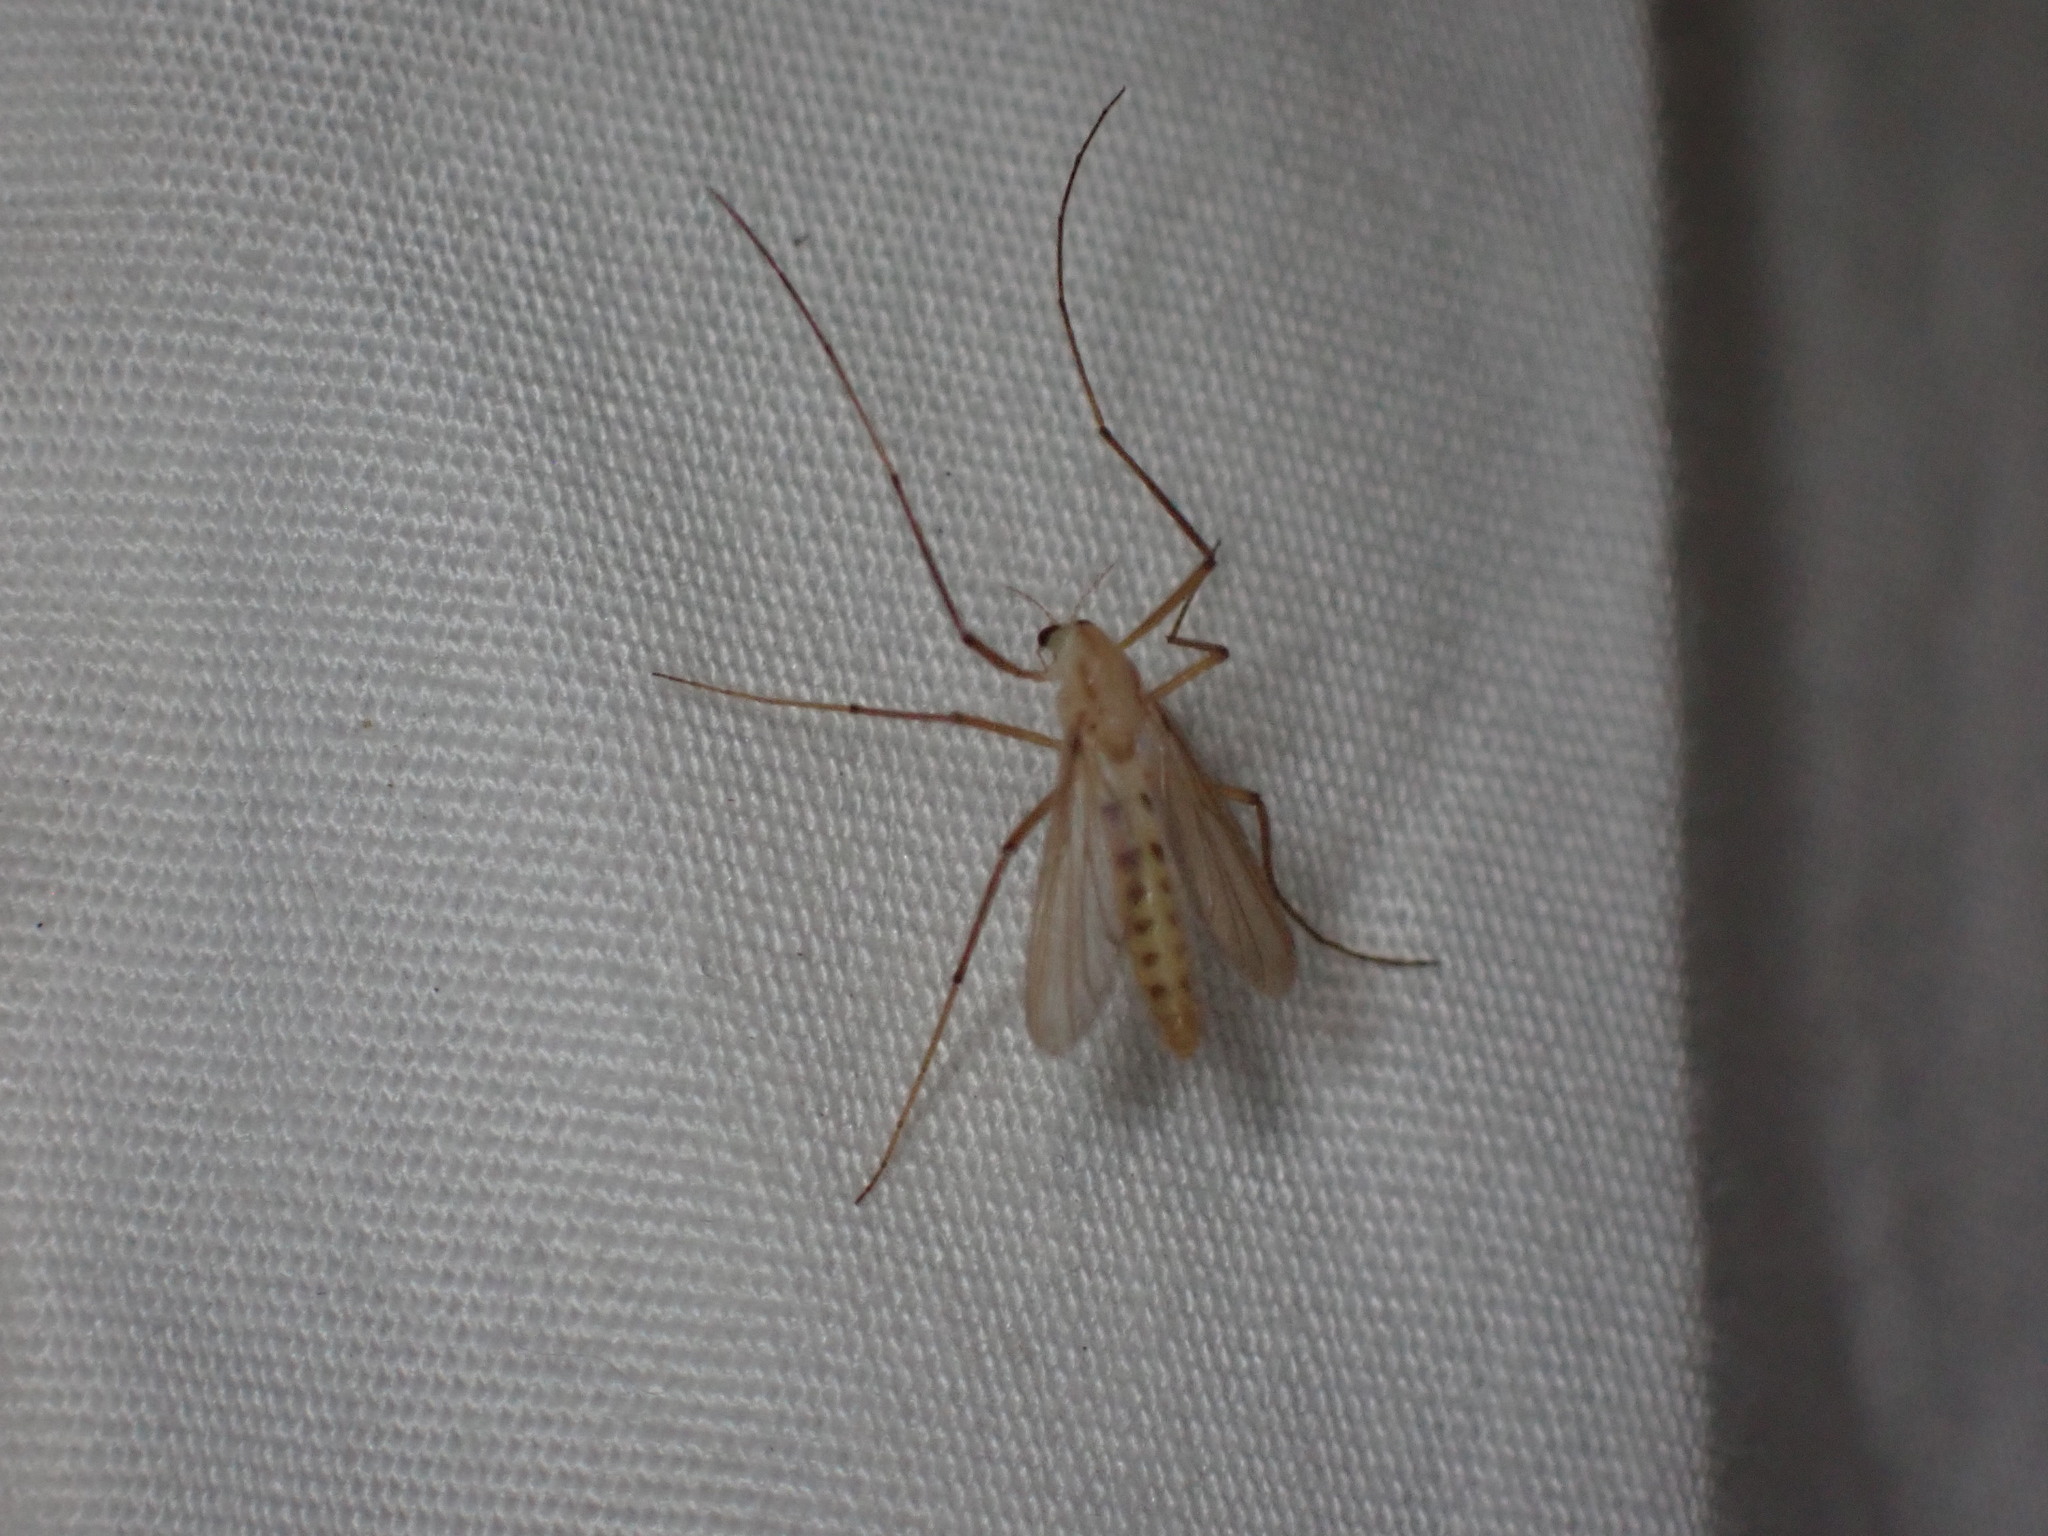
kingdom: Animalia
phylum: Arthropoda
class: Insecta
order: Diptera
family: Chironomidae
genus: Xylotopus
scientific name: Xylotopus par
